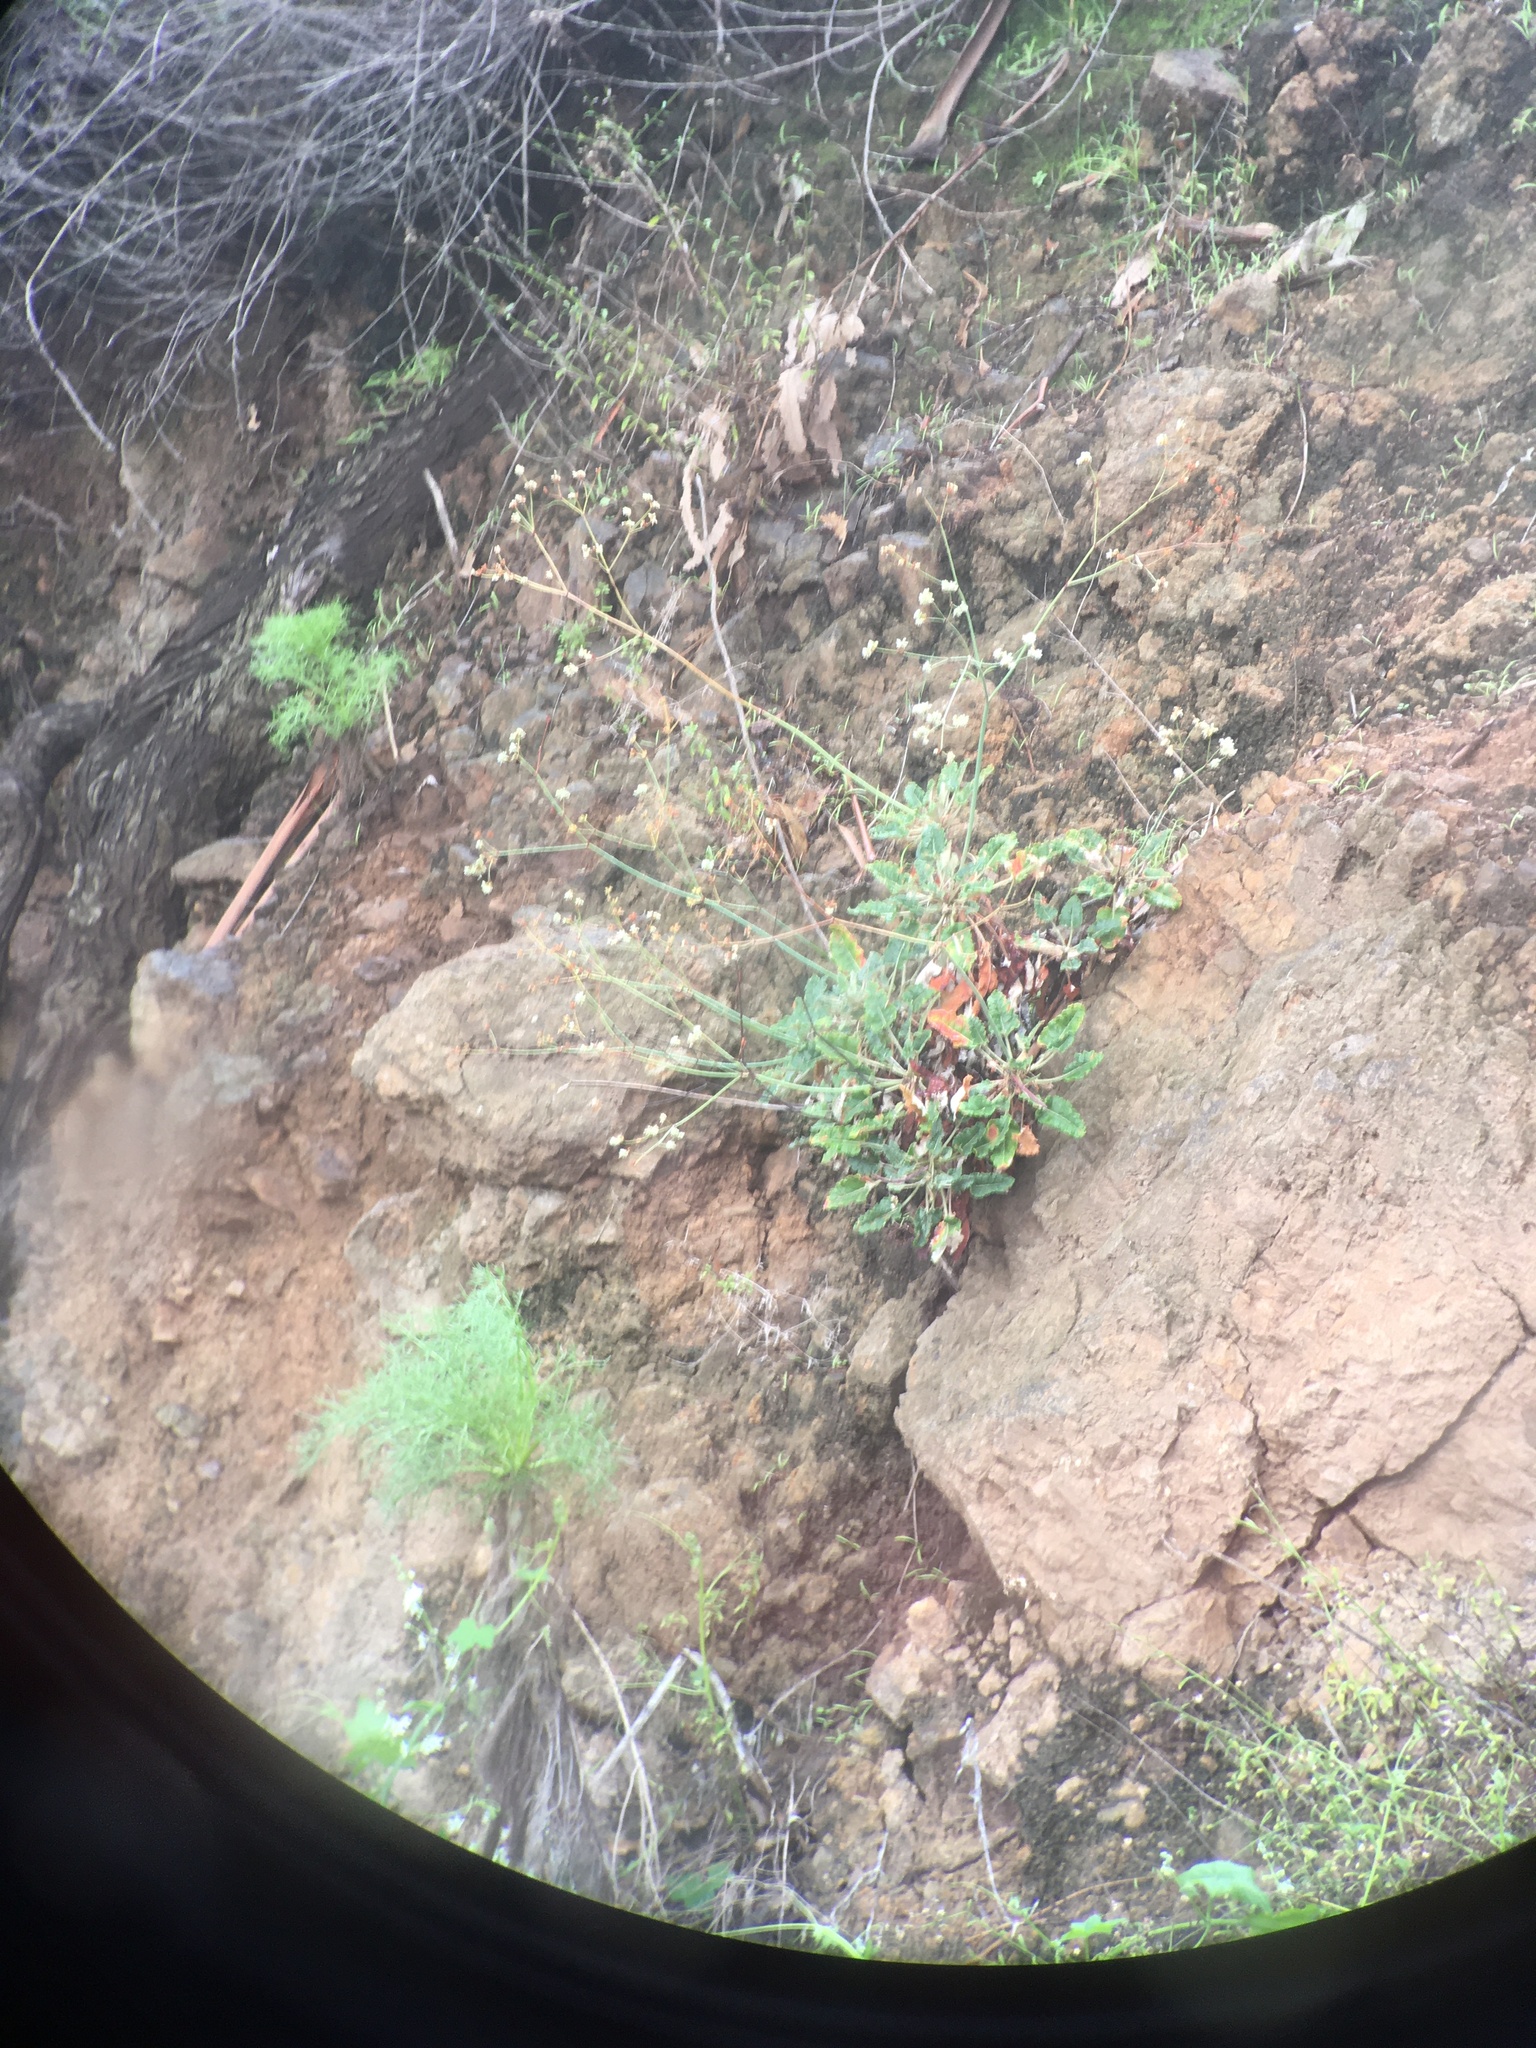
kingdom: Plantae
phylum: Tracheophyta
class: Magnoliopsida
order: Caryophyllales
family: Polygonaceae
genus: Eriogonum
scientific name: Eriogonum grande
